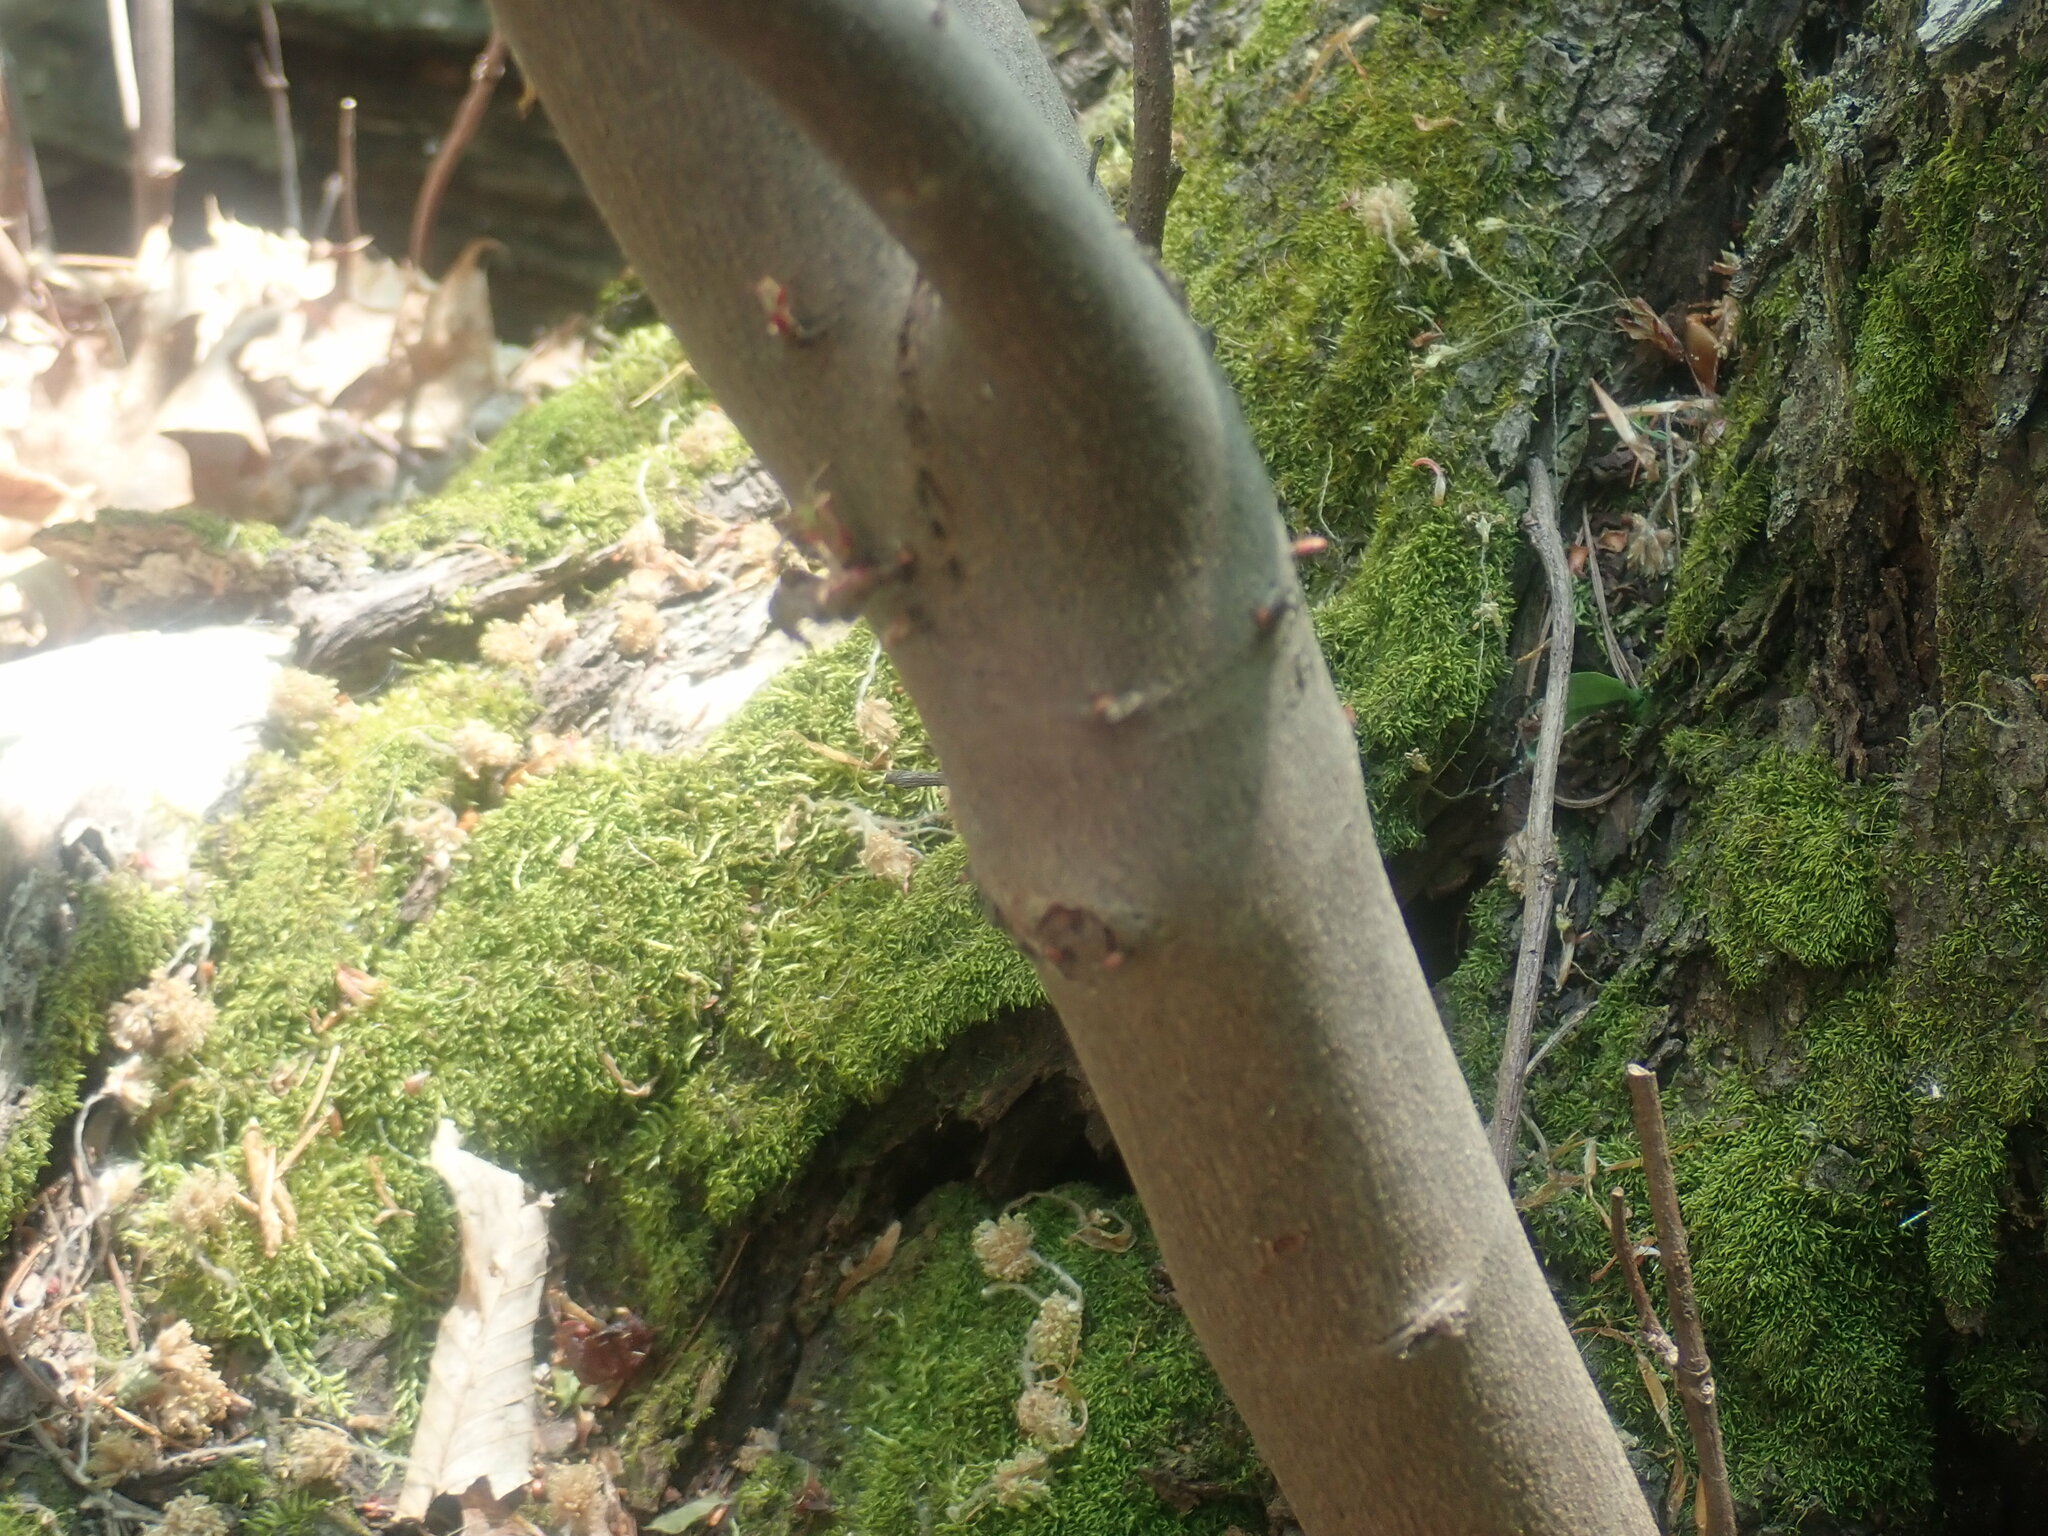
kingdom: Plantae
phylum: Tracheophyta
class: Magnoliopsida
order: Sapindales
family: Sapindaceae
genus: Acer
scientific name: Acer rubrum
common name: Red maple
